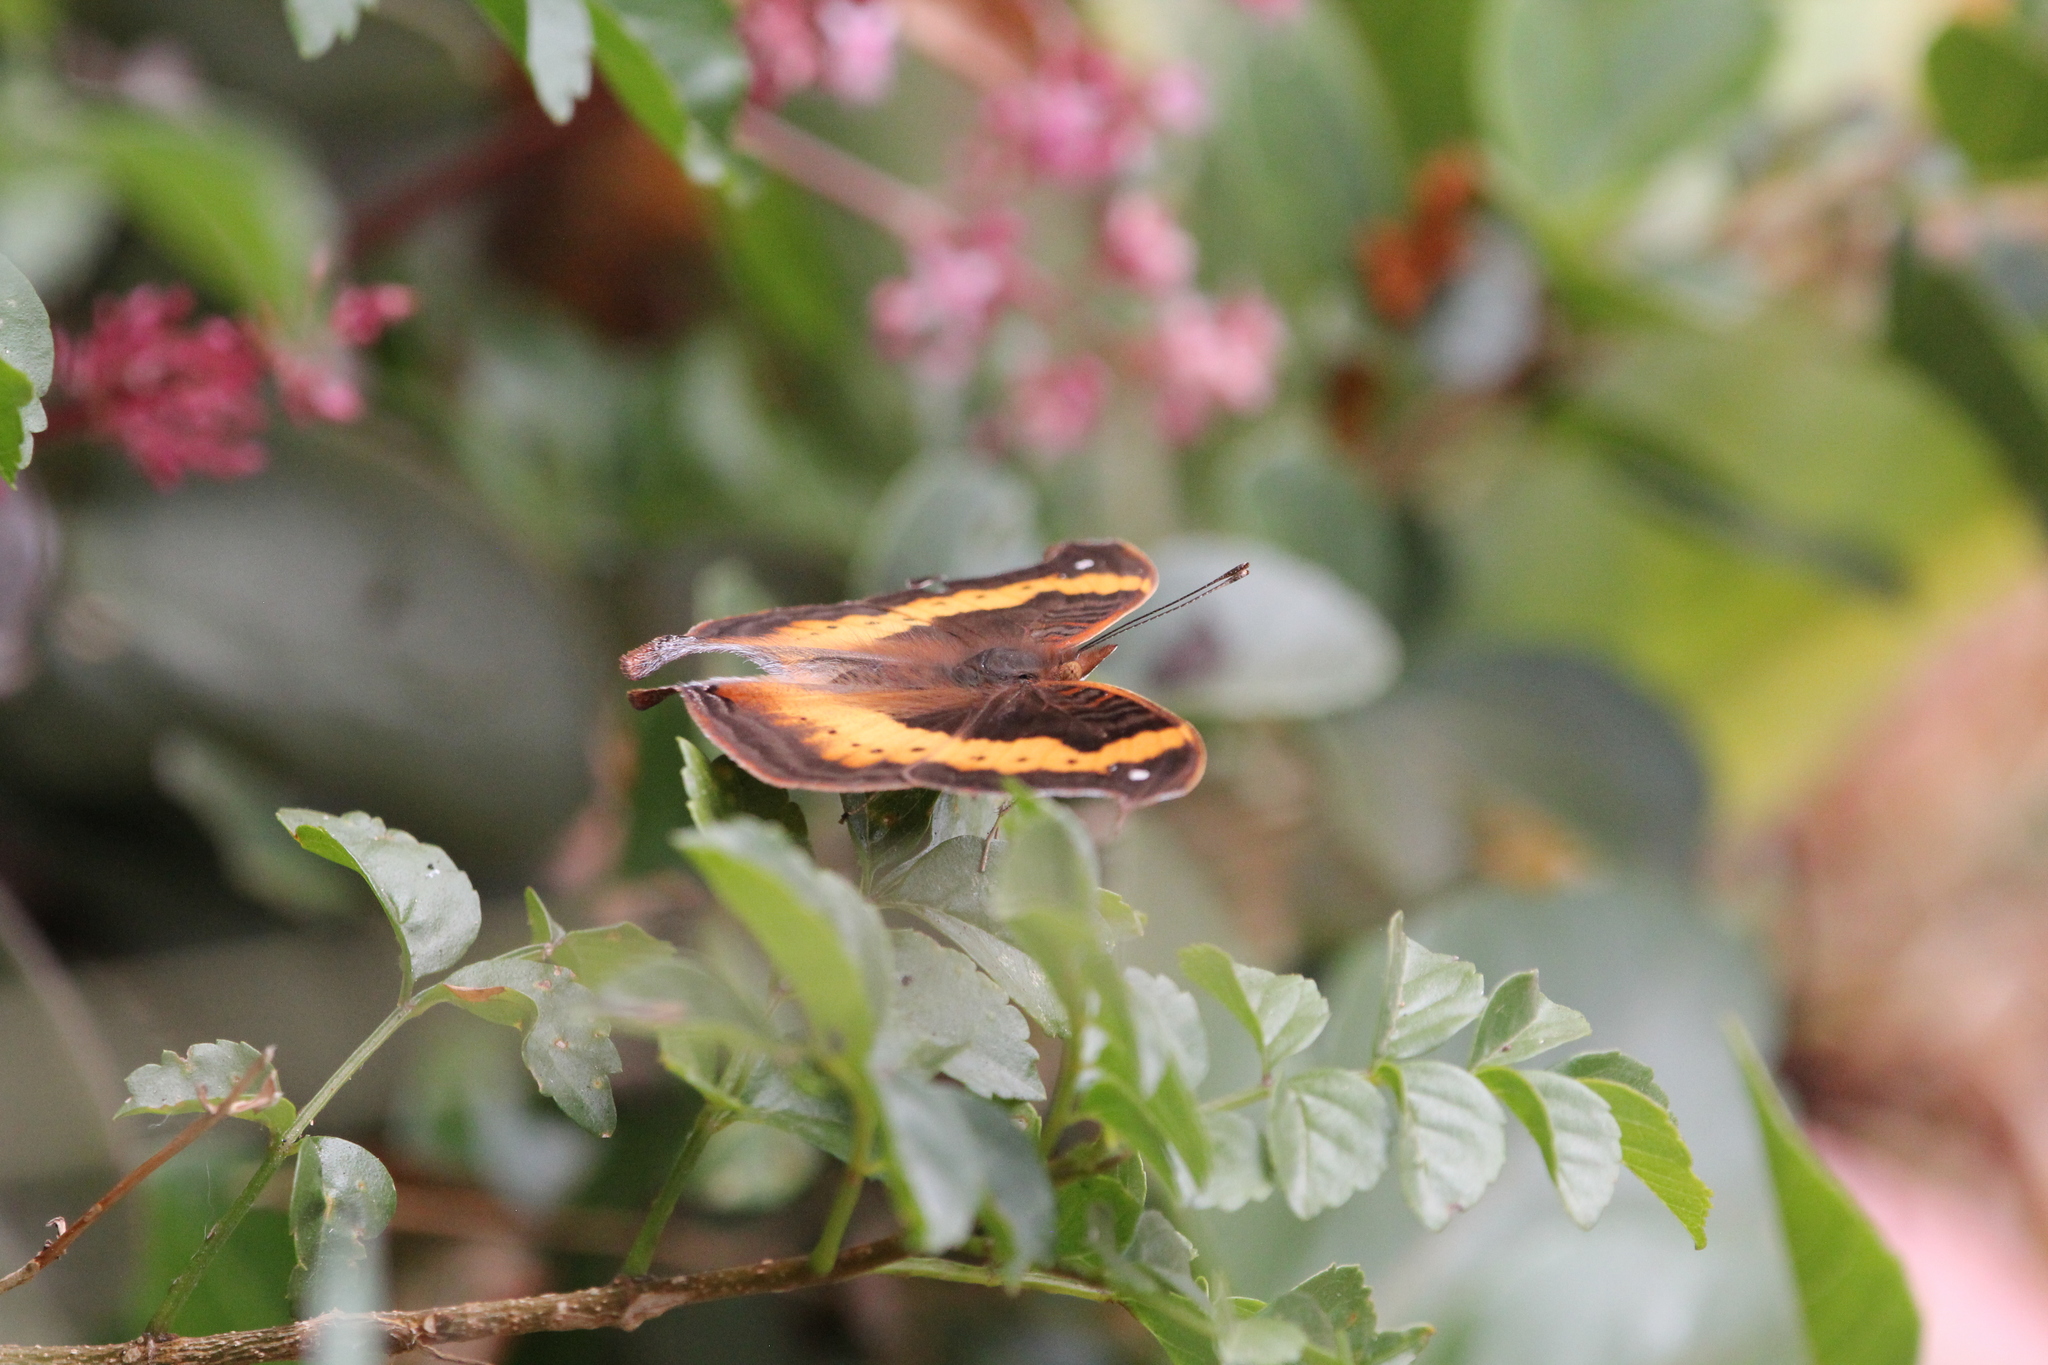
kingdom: Animalia
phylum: Arthropoda
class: Insecta
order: Lepidoptera
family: Nymphalidae
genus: Junonia
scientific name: Junonia tugela
